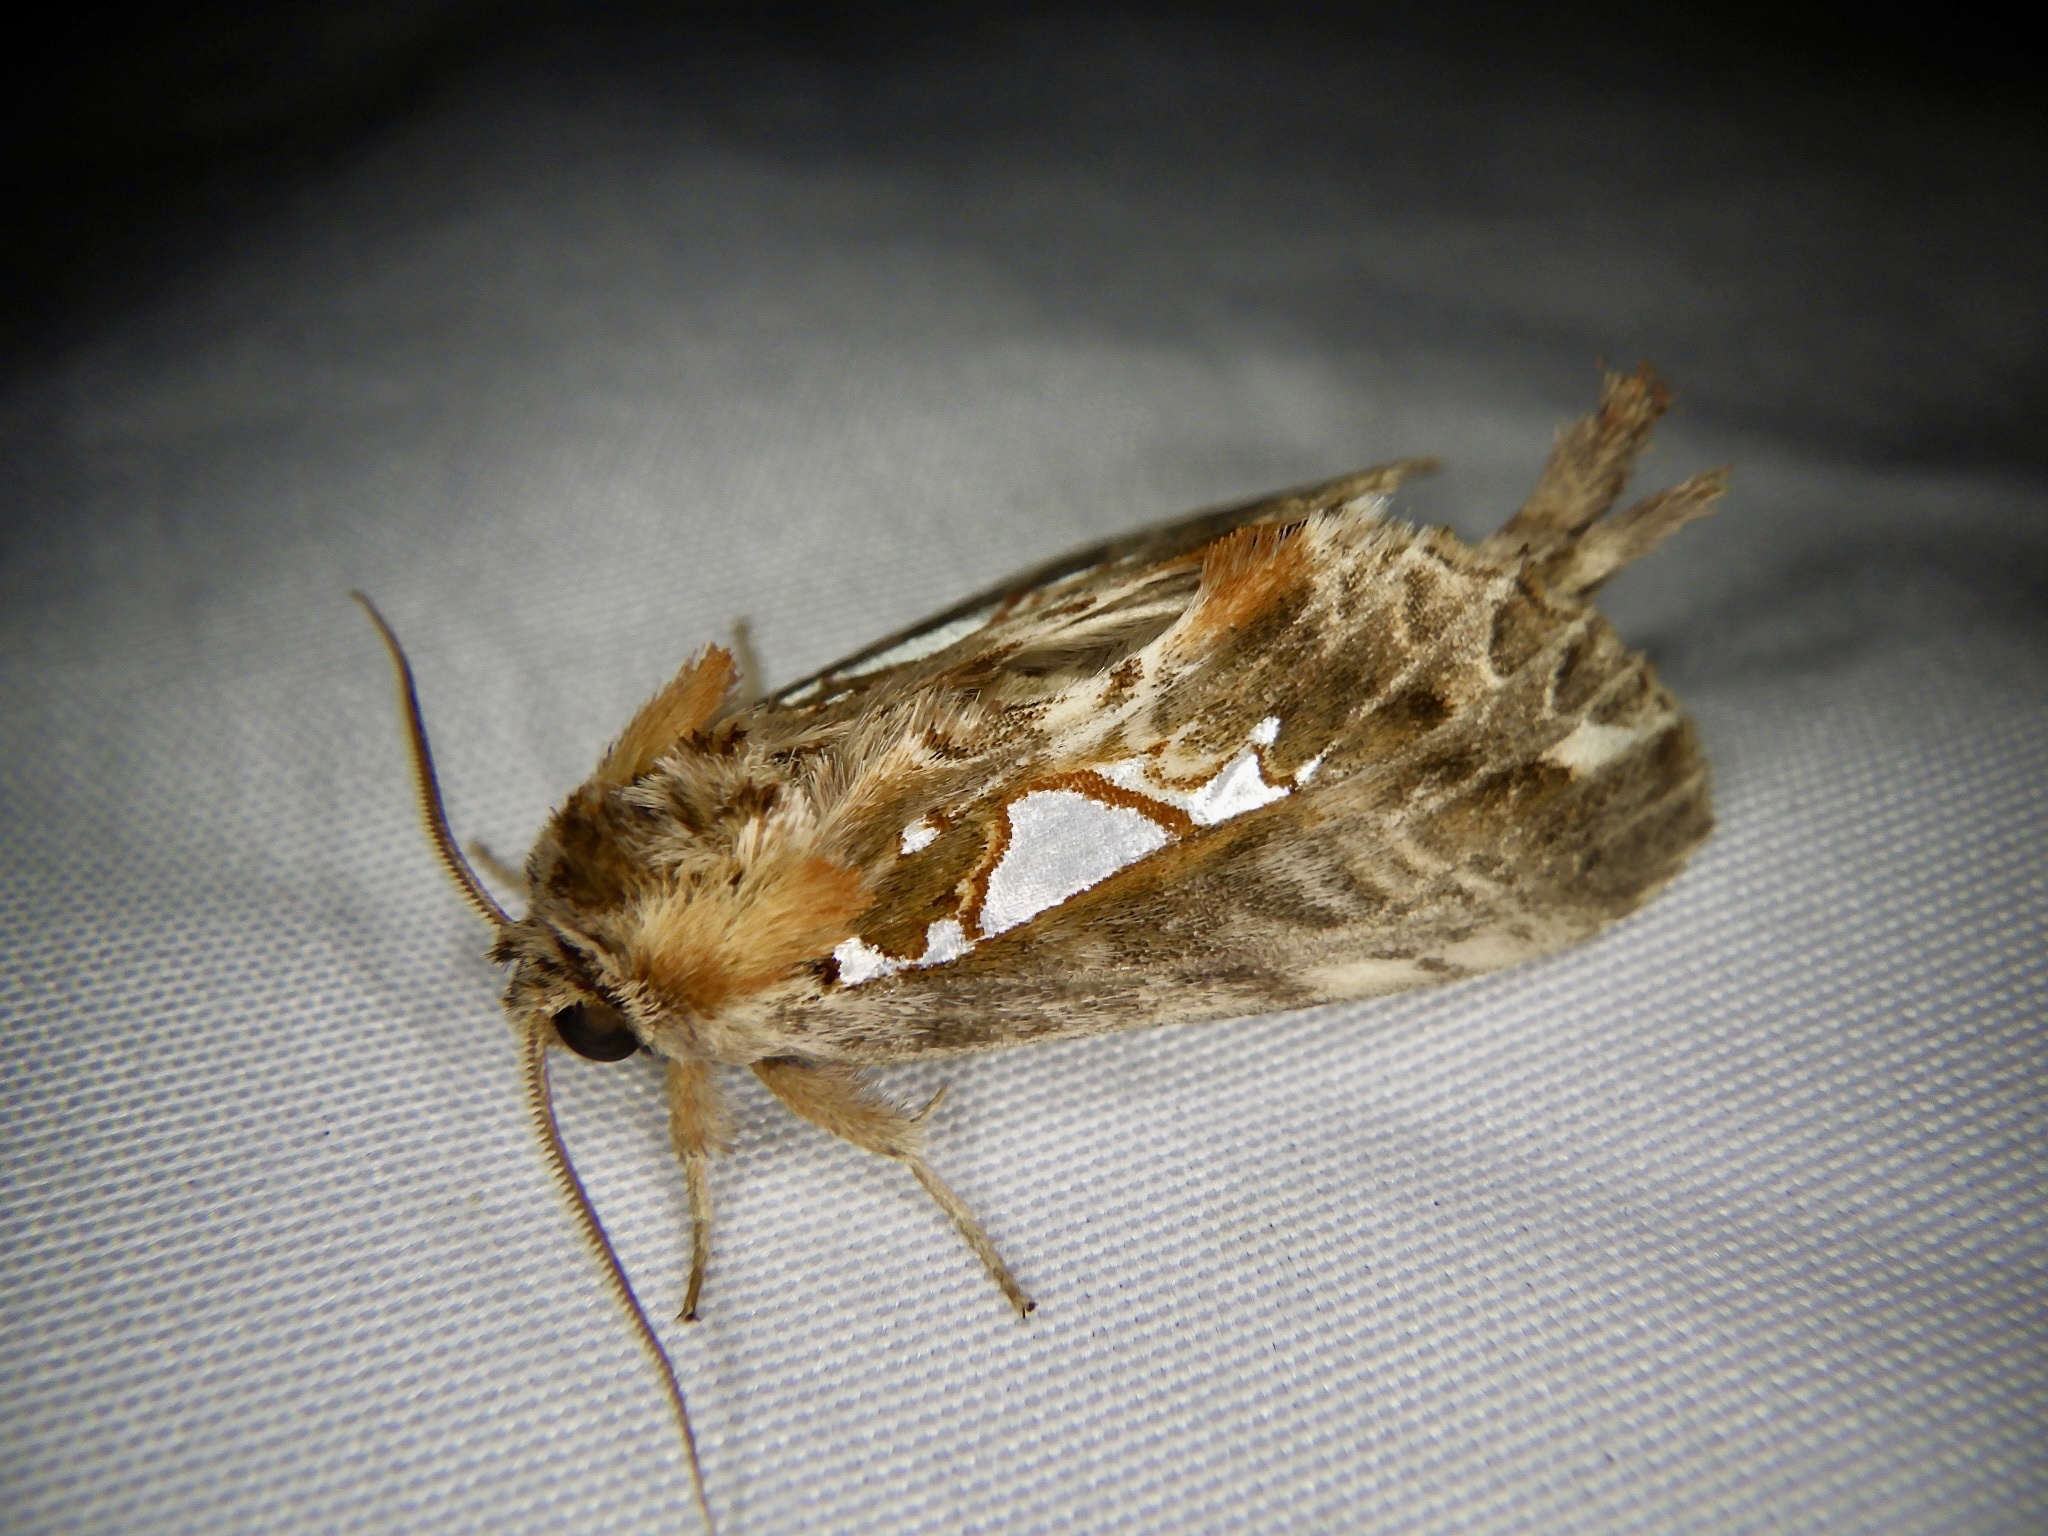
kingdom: Animalia
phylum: Arthropoda
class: Insecta
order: Lepidoptera
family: Notodontidae
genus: Spatalia
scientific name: Spatalia doerriesi
